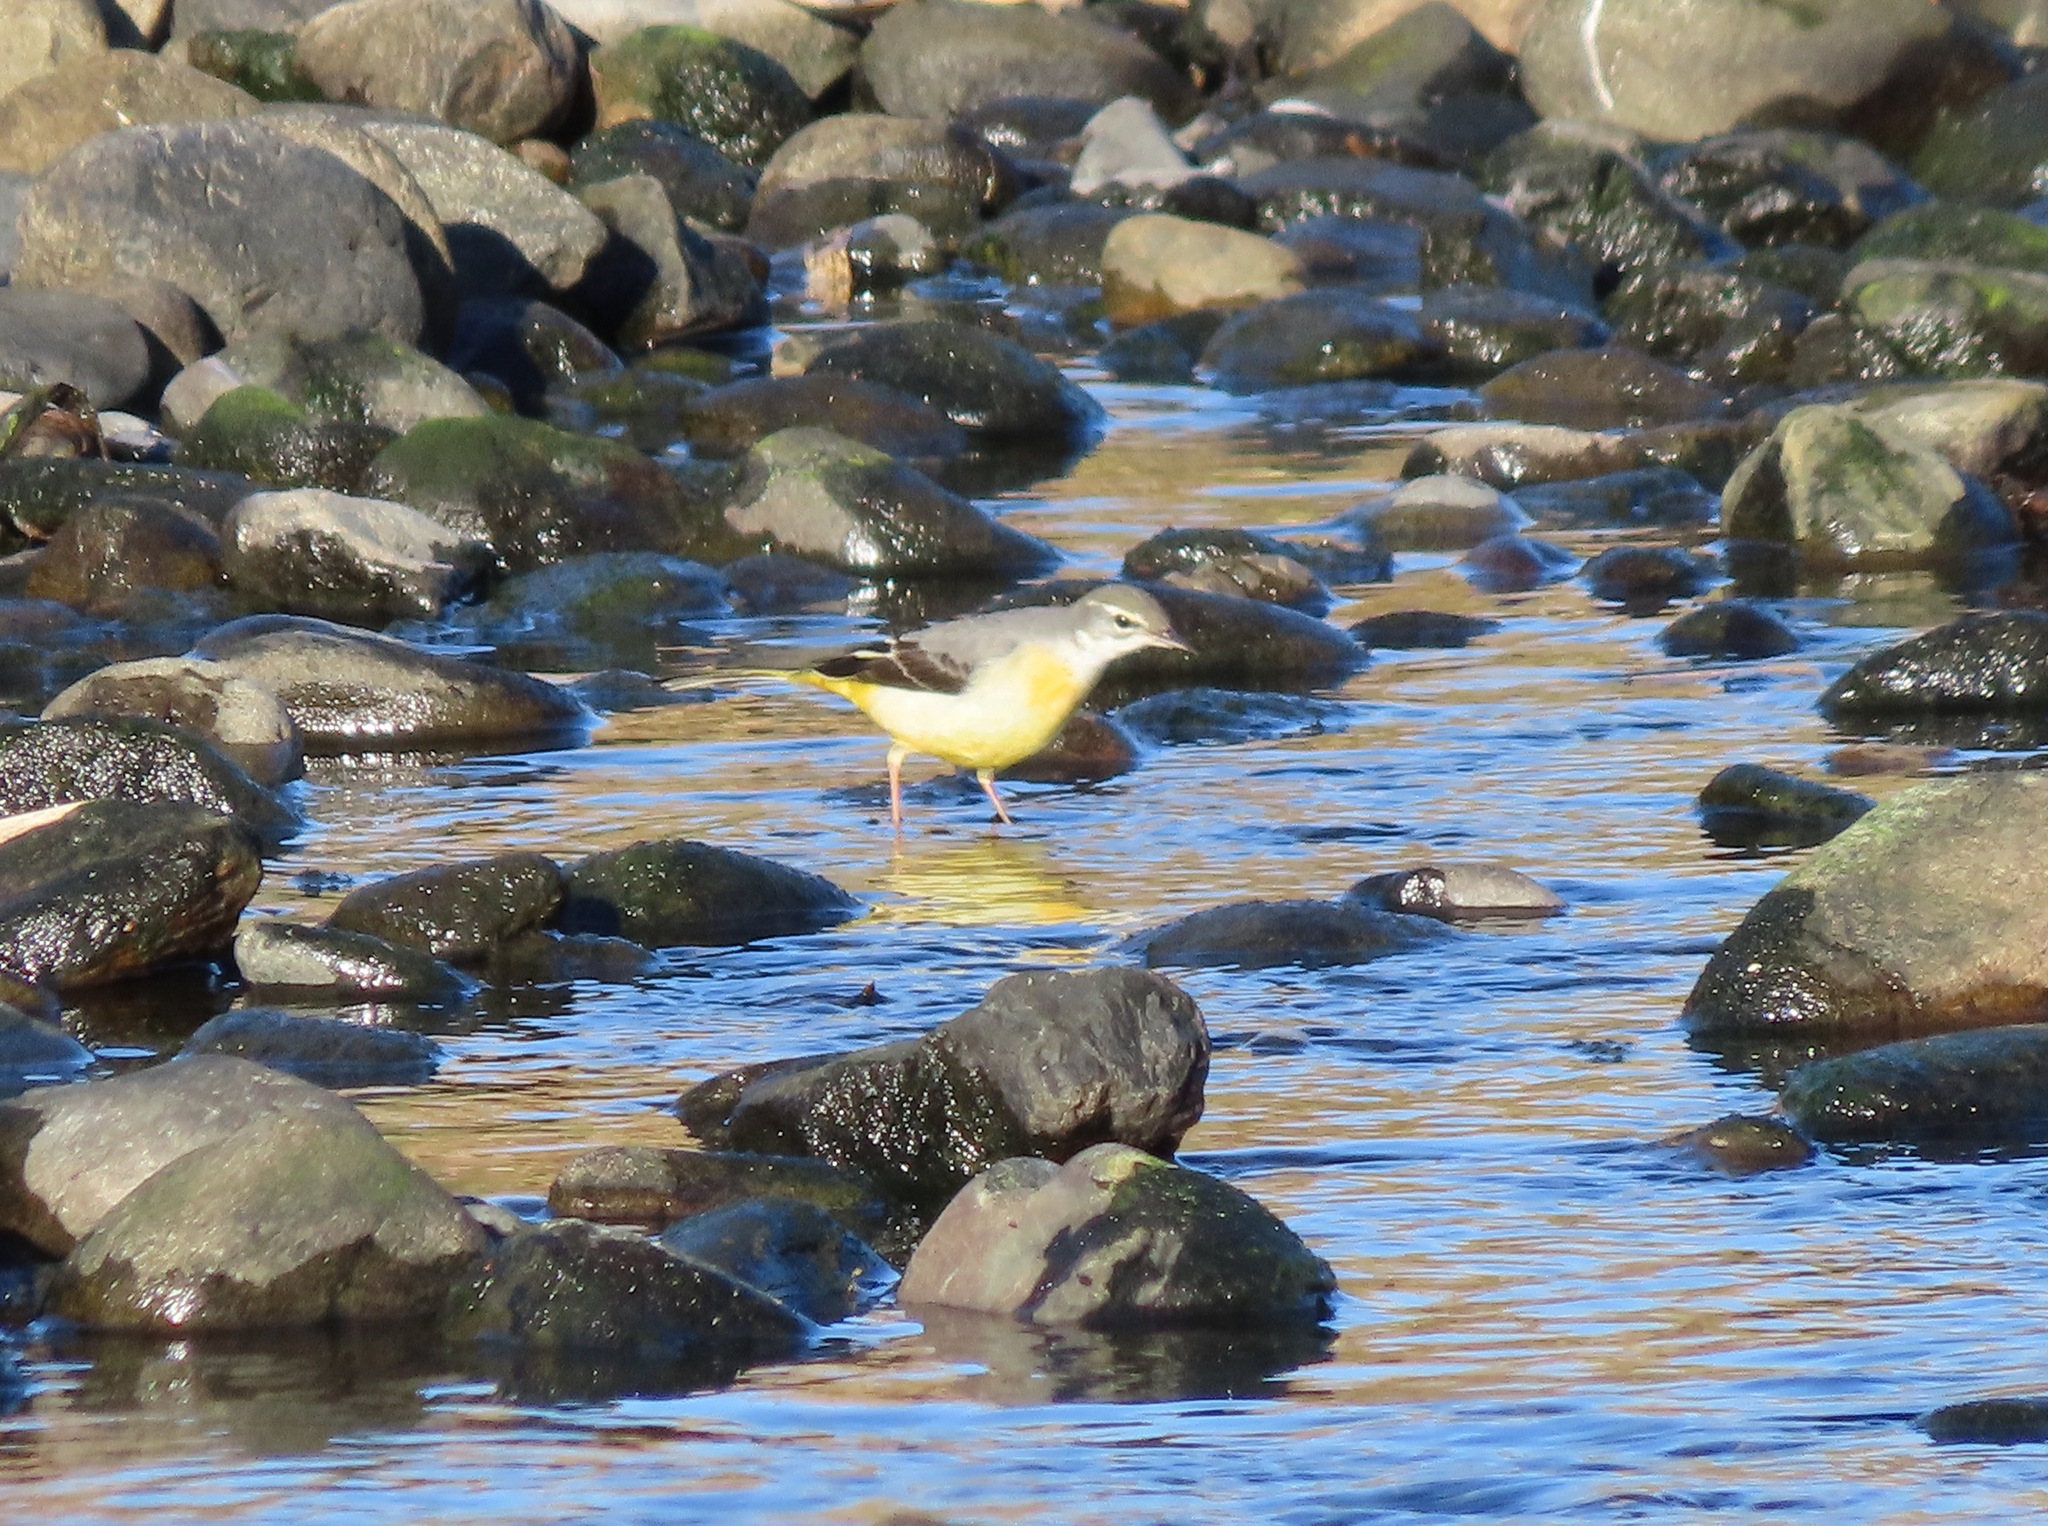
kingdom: Animalia
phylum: Chordata
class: Aves
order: Passeriformes
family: Motacillidae
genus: Motacilla
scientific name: Motacilla cinerea
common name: Grey wagtail
